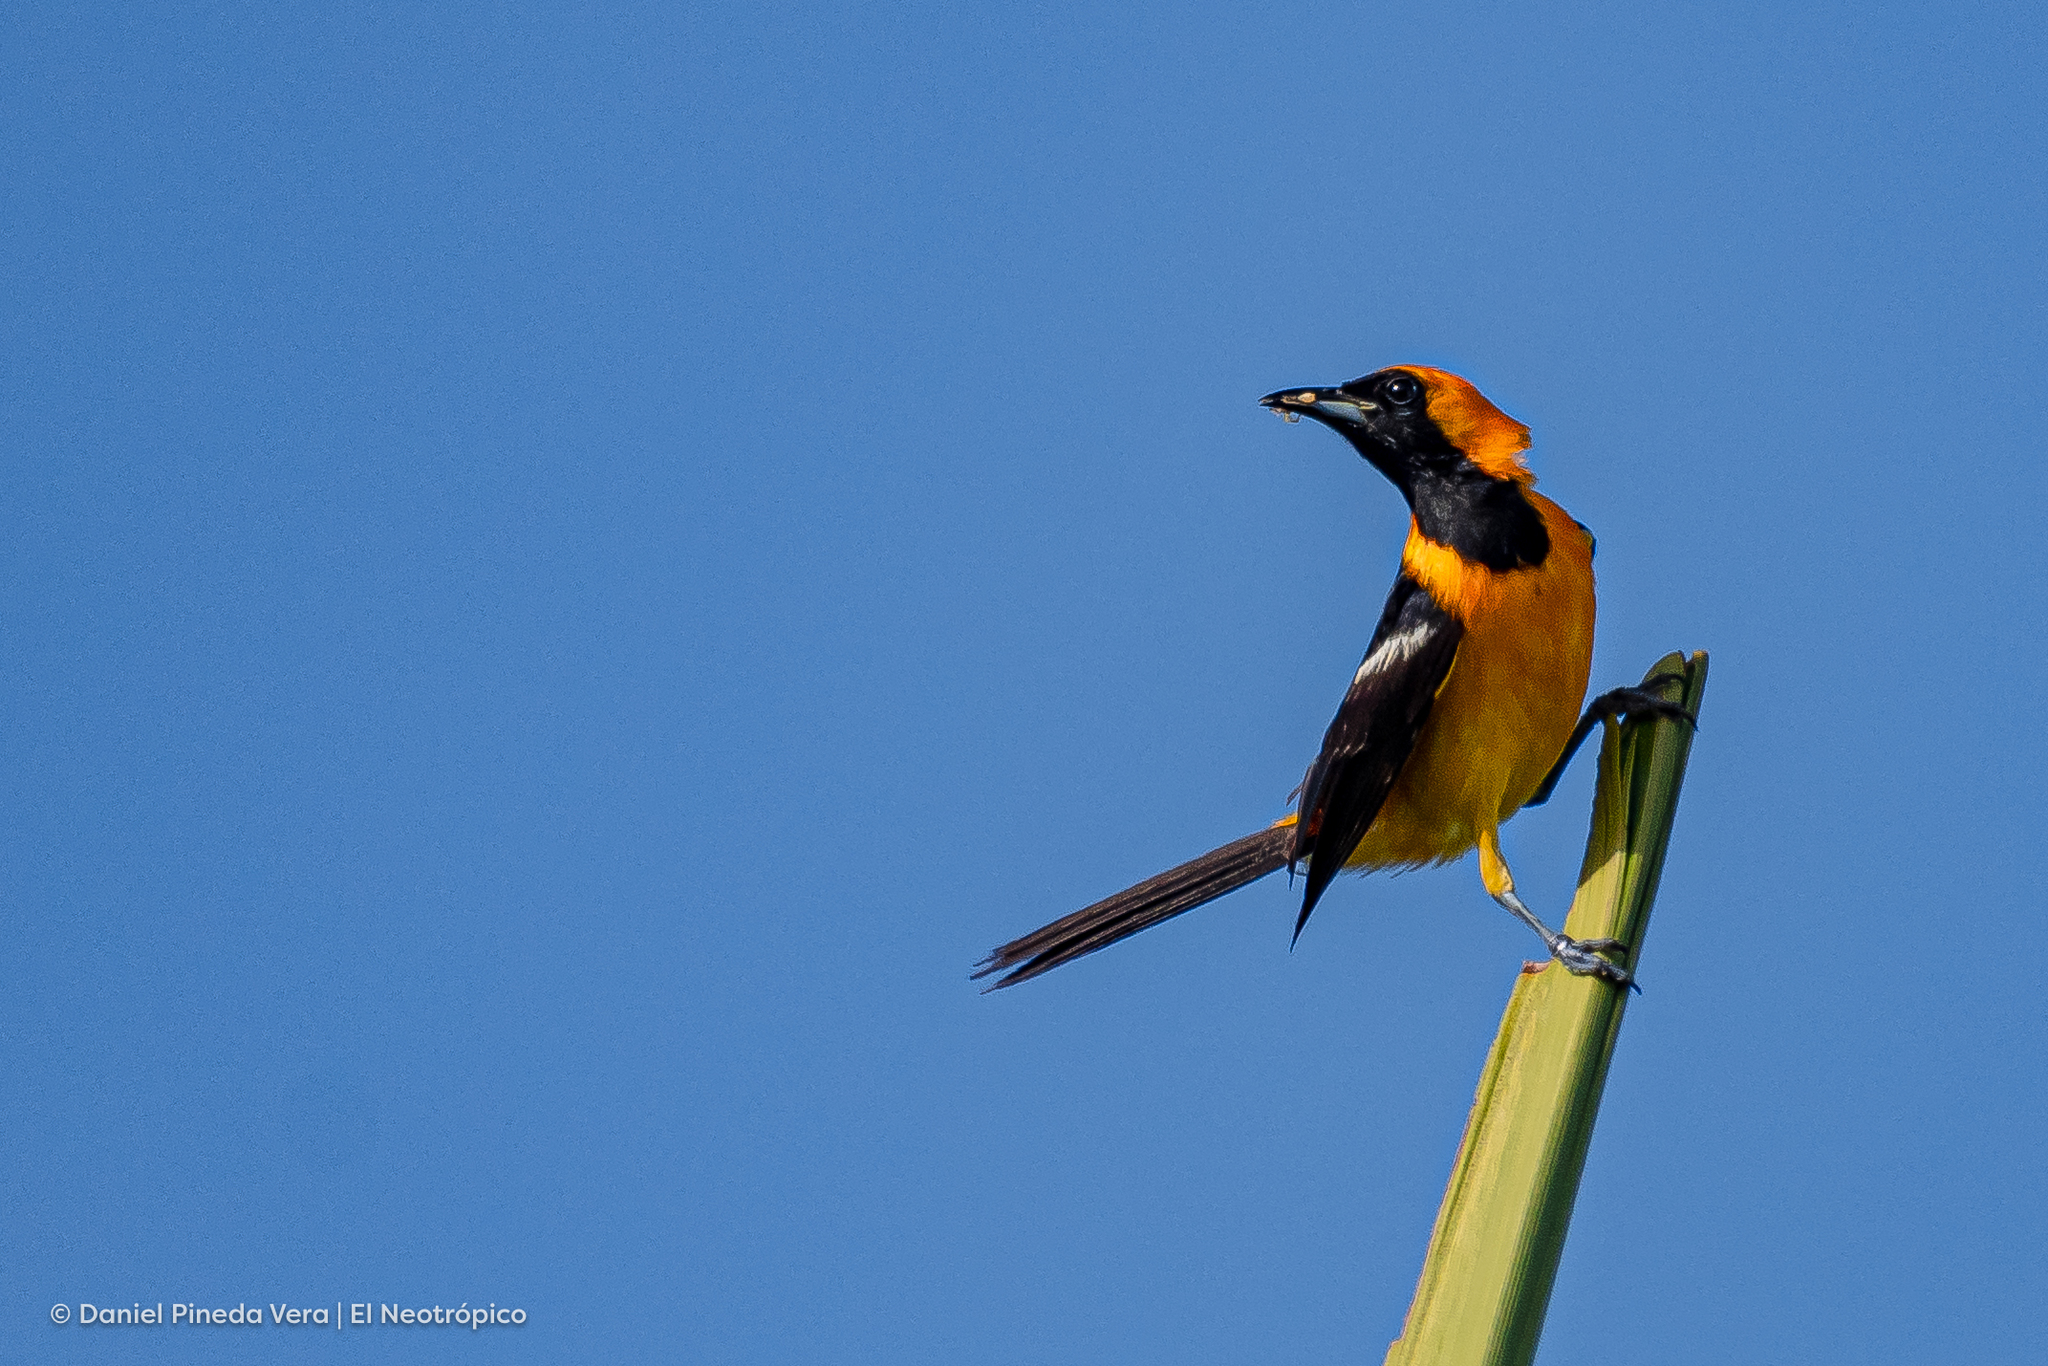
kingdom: Animalia
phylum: Chordata
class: Aves
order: Passeriformes
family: Icteridae
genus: Icterus
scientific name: Icterus cucullatus
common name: Hooded oriole
